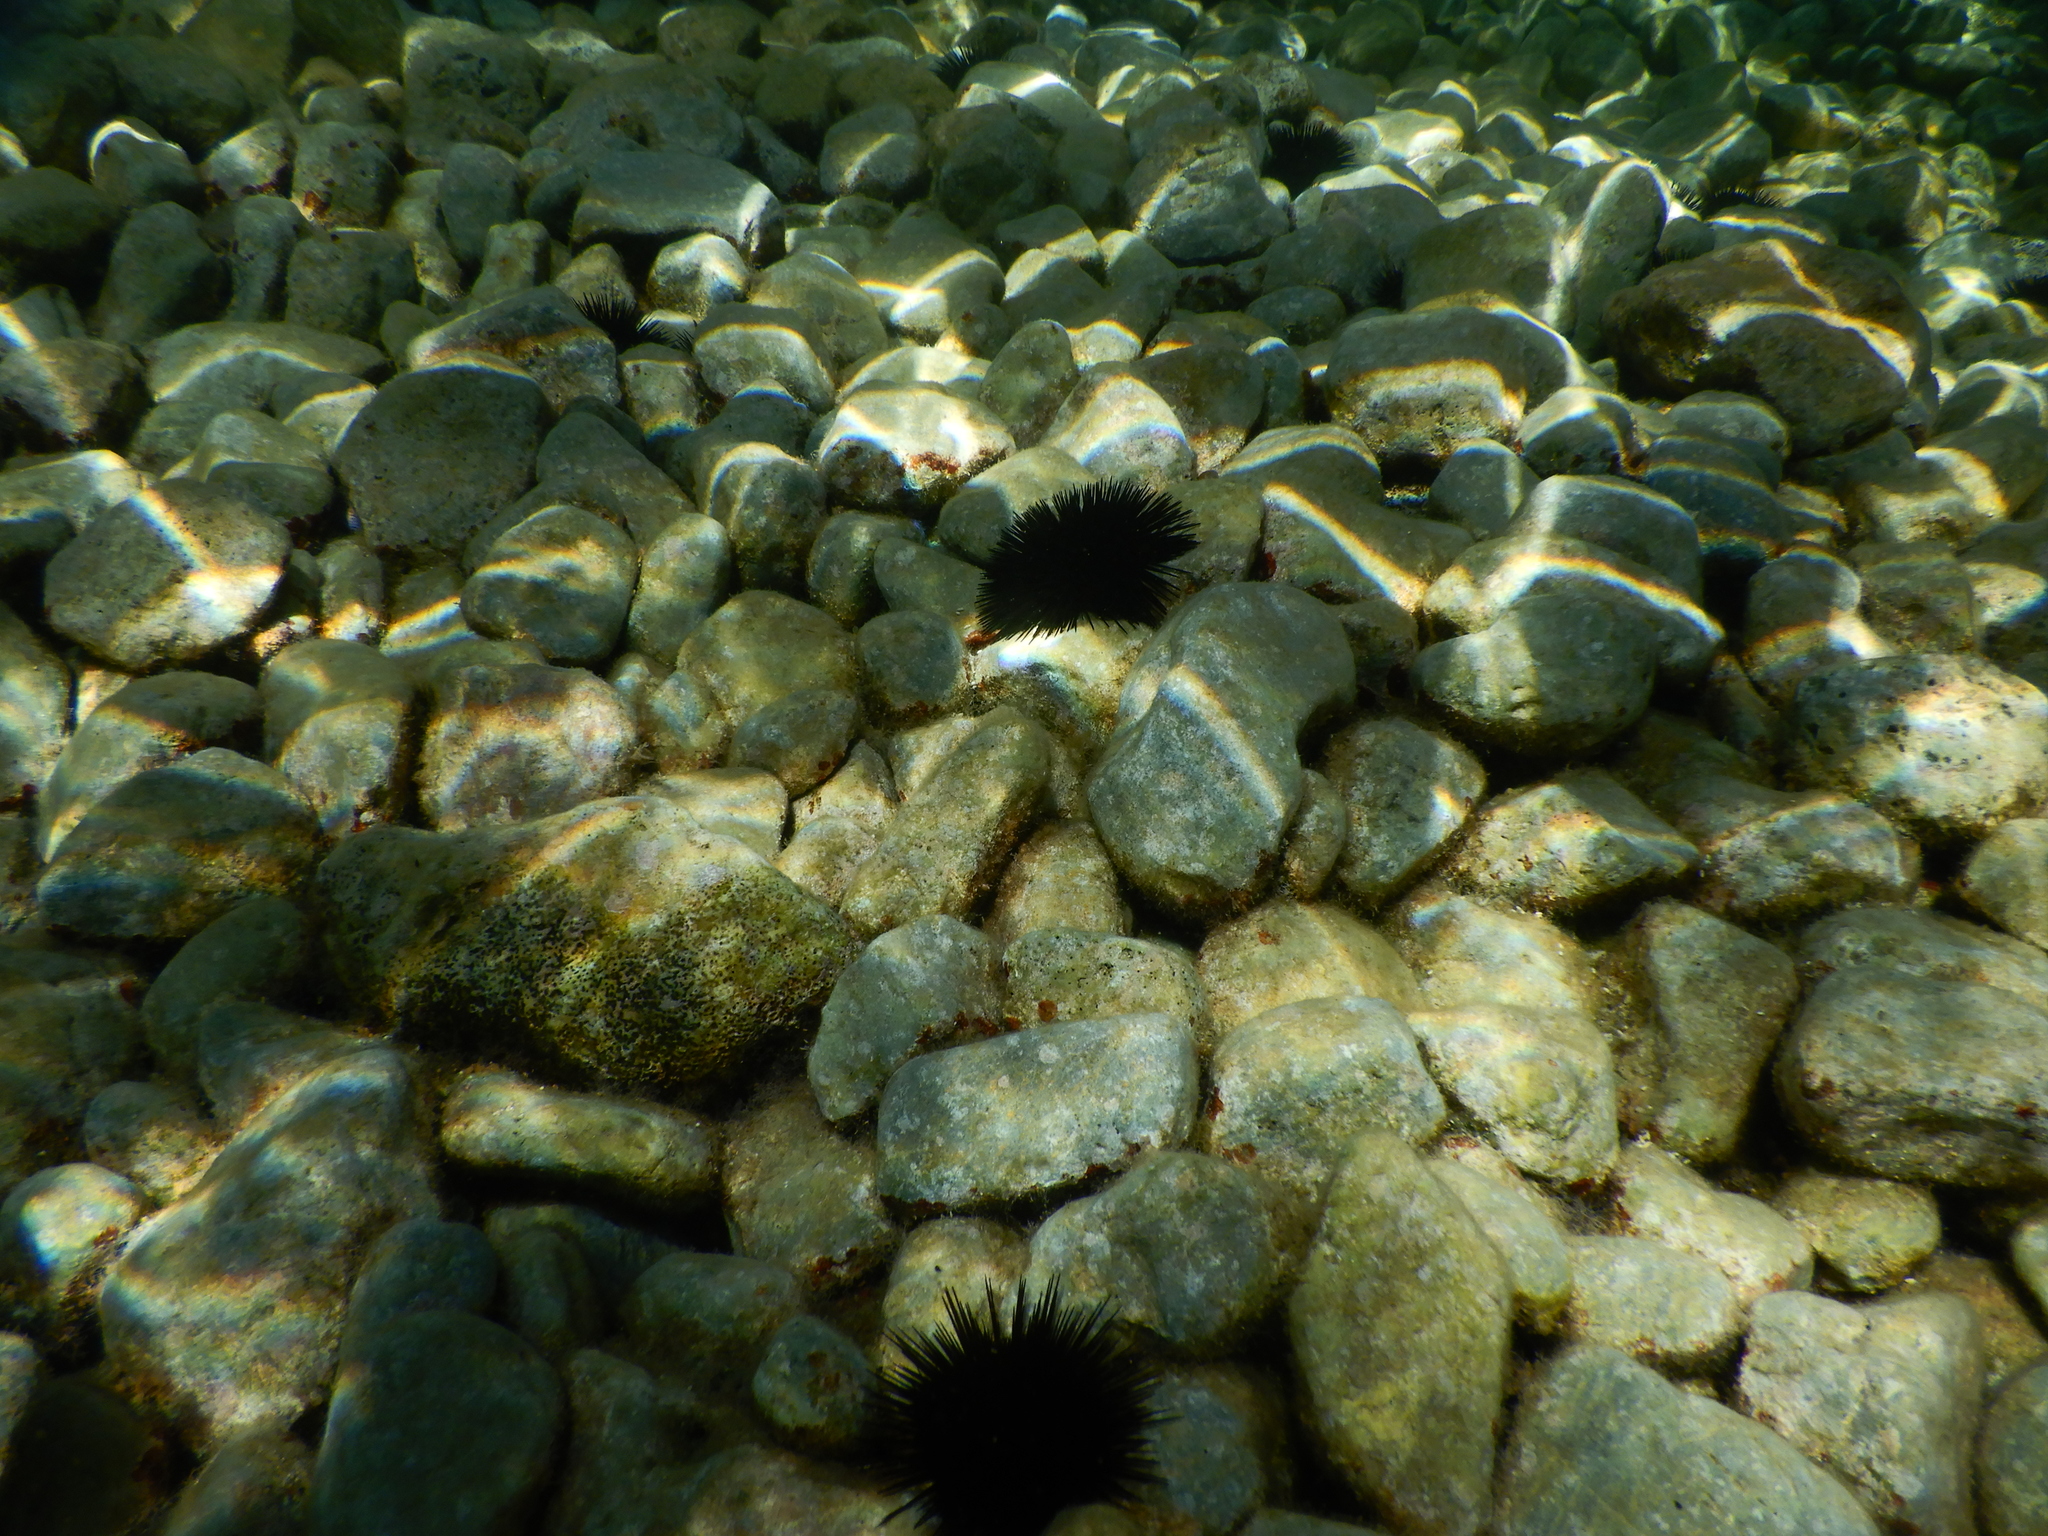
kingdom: Animalia
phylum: Echinodermata
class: Echinoidea
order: Arbacioida
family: Arbaciidae
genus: Arbacia
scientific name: Arbacia lixula
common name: Black sea urchin
